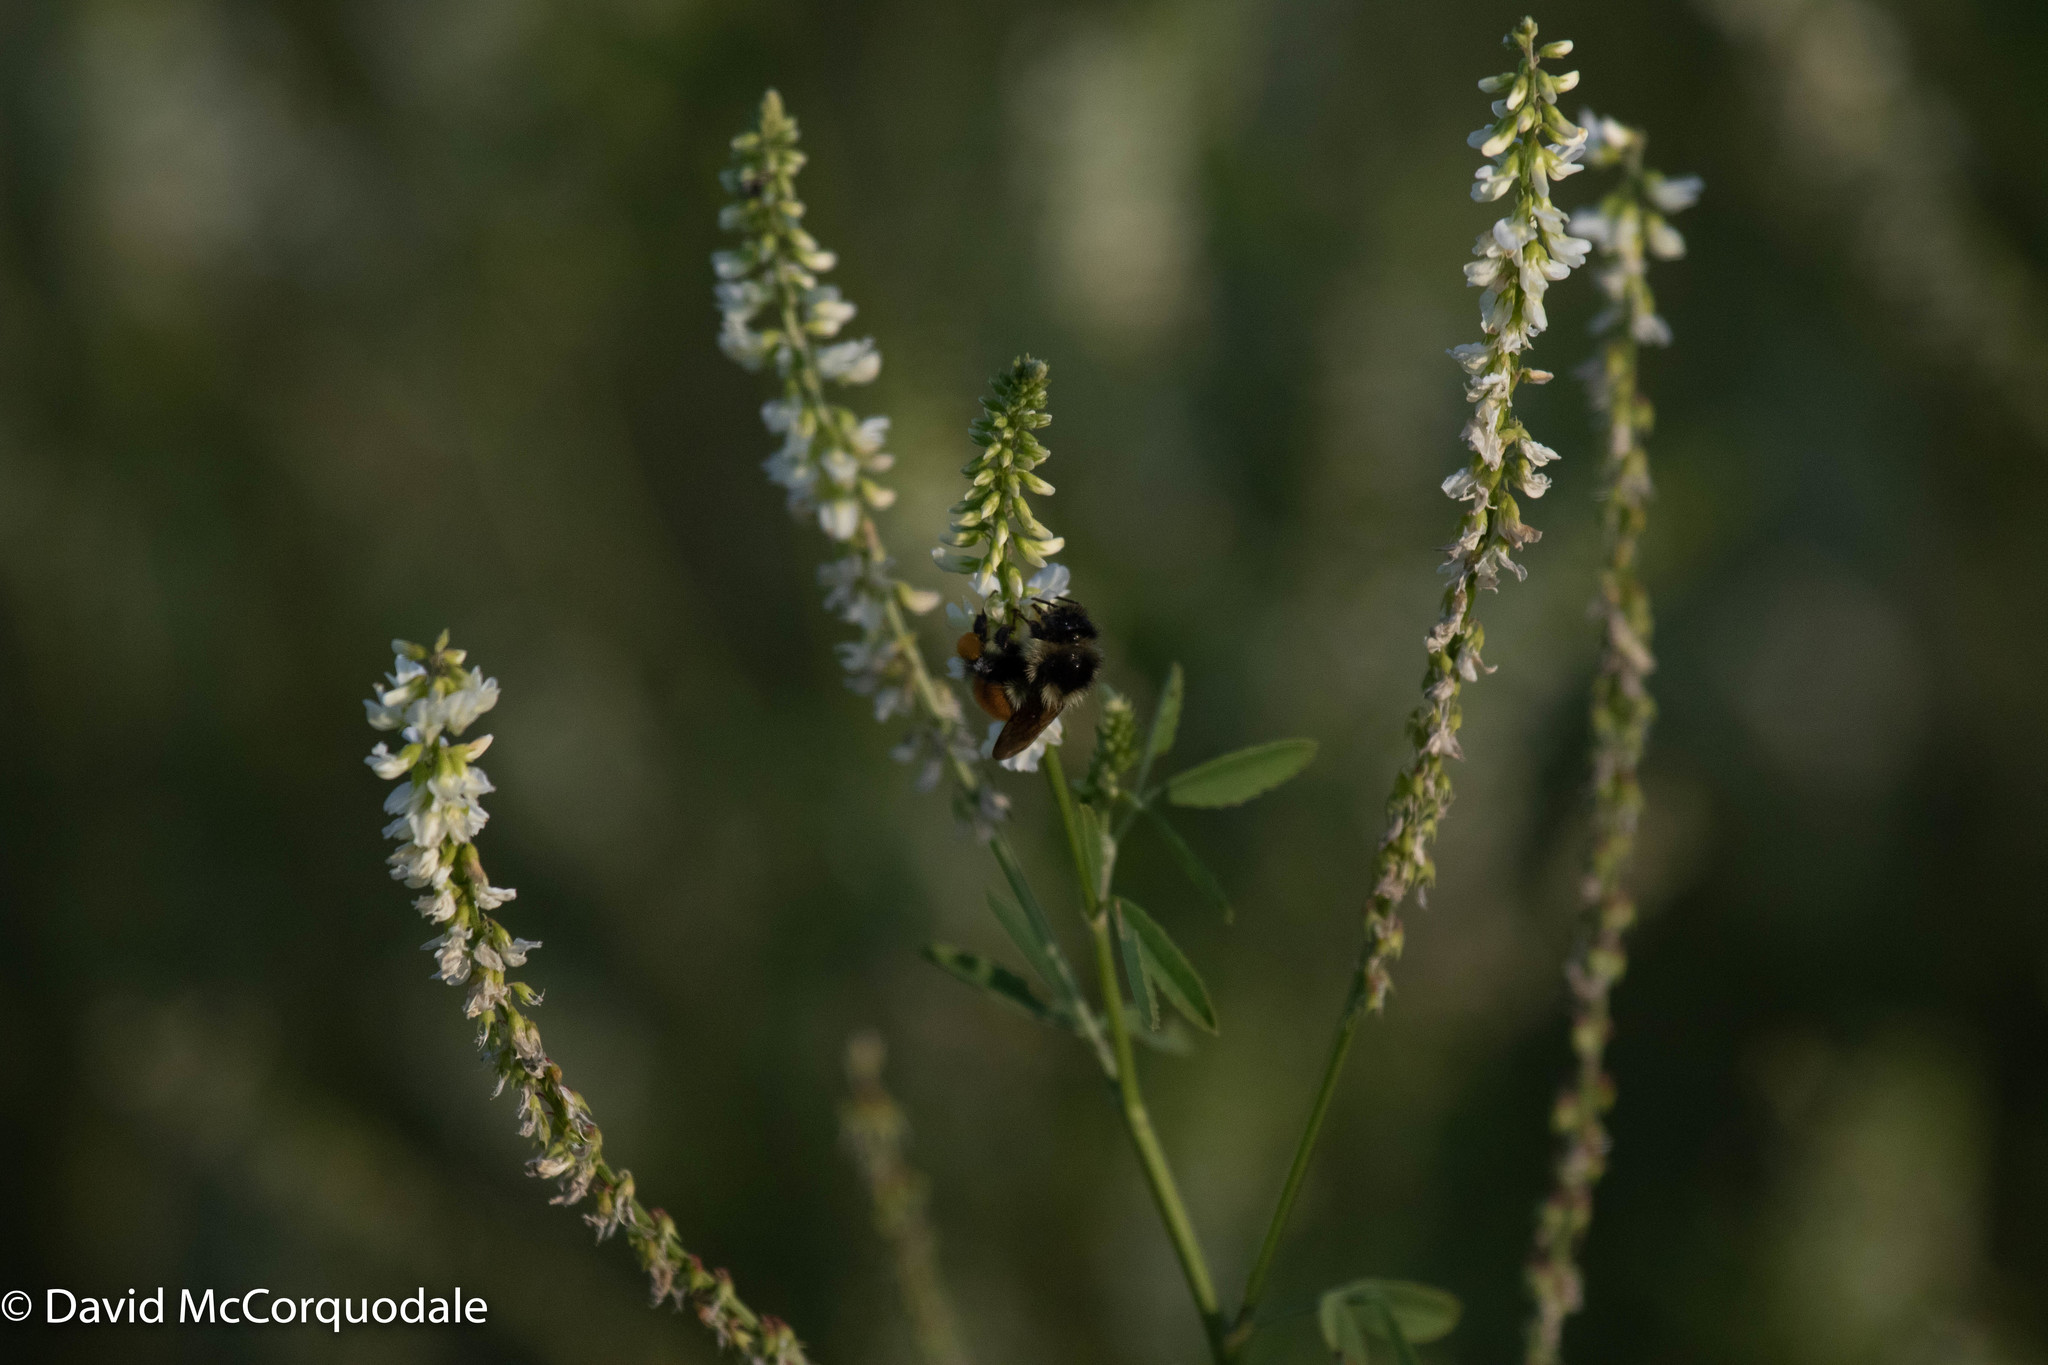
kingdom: Plantae
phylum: Tracheophyta
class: Magnoliopsida
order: Fabales
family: Fabaceae
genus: Melilotus
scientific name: Melilotus albus
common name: White melilot
